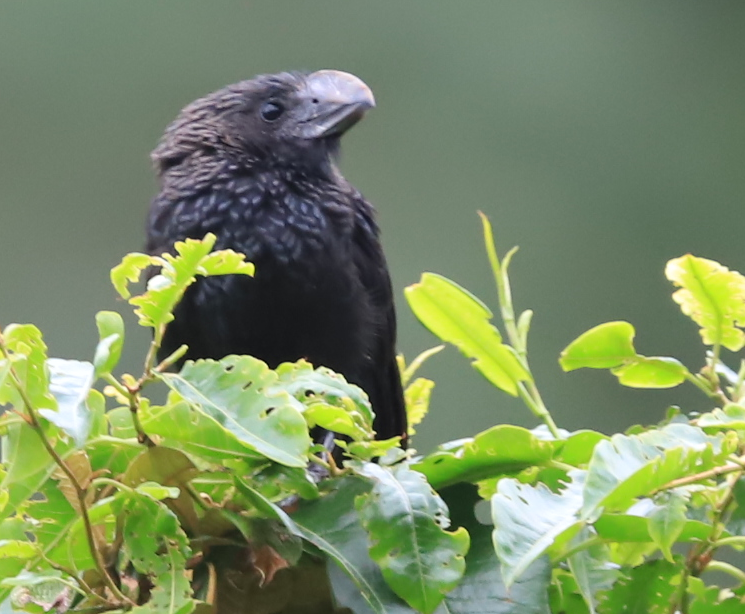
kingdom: Animalia
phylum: Chordata
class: Aves
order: Cuculiformes
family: Cuculidae
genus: Crotophaga
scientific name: Crotophaga ani
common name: Smooth-billed ani
